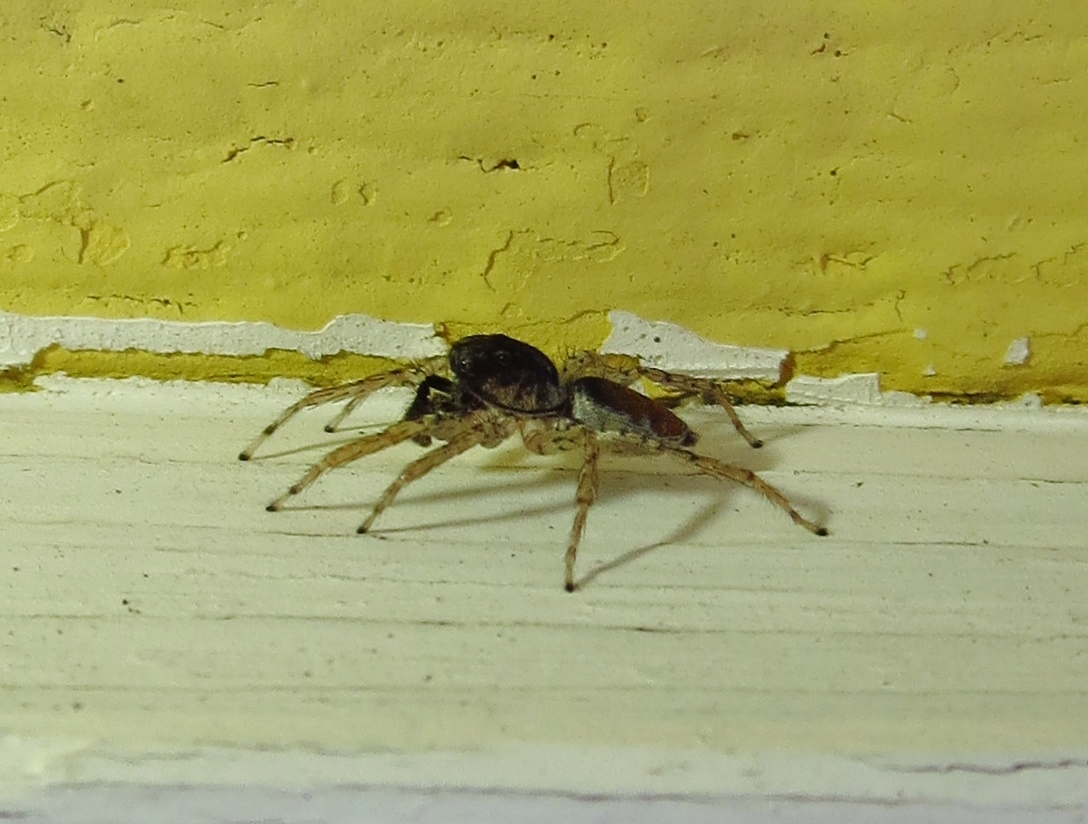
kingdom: Animalia
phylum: Arthropoda
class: Arachnida
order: Araneae
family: Salticidae
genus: Maevia
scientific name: Maevia inclemens
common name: Dimorphic jumper
